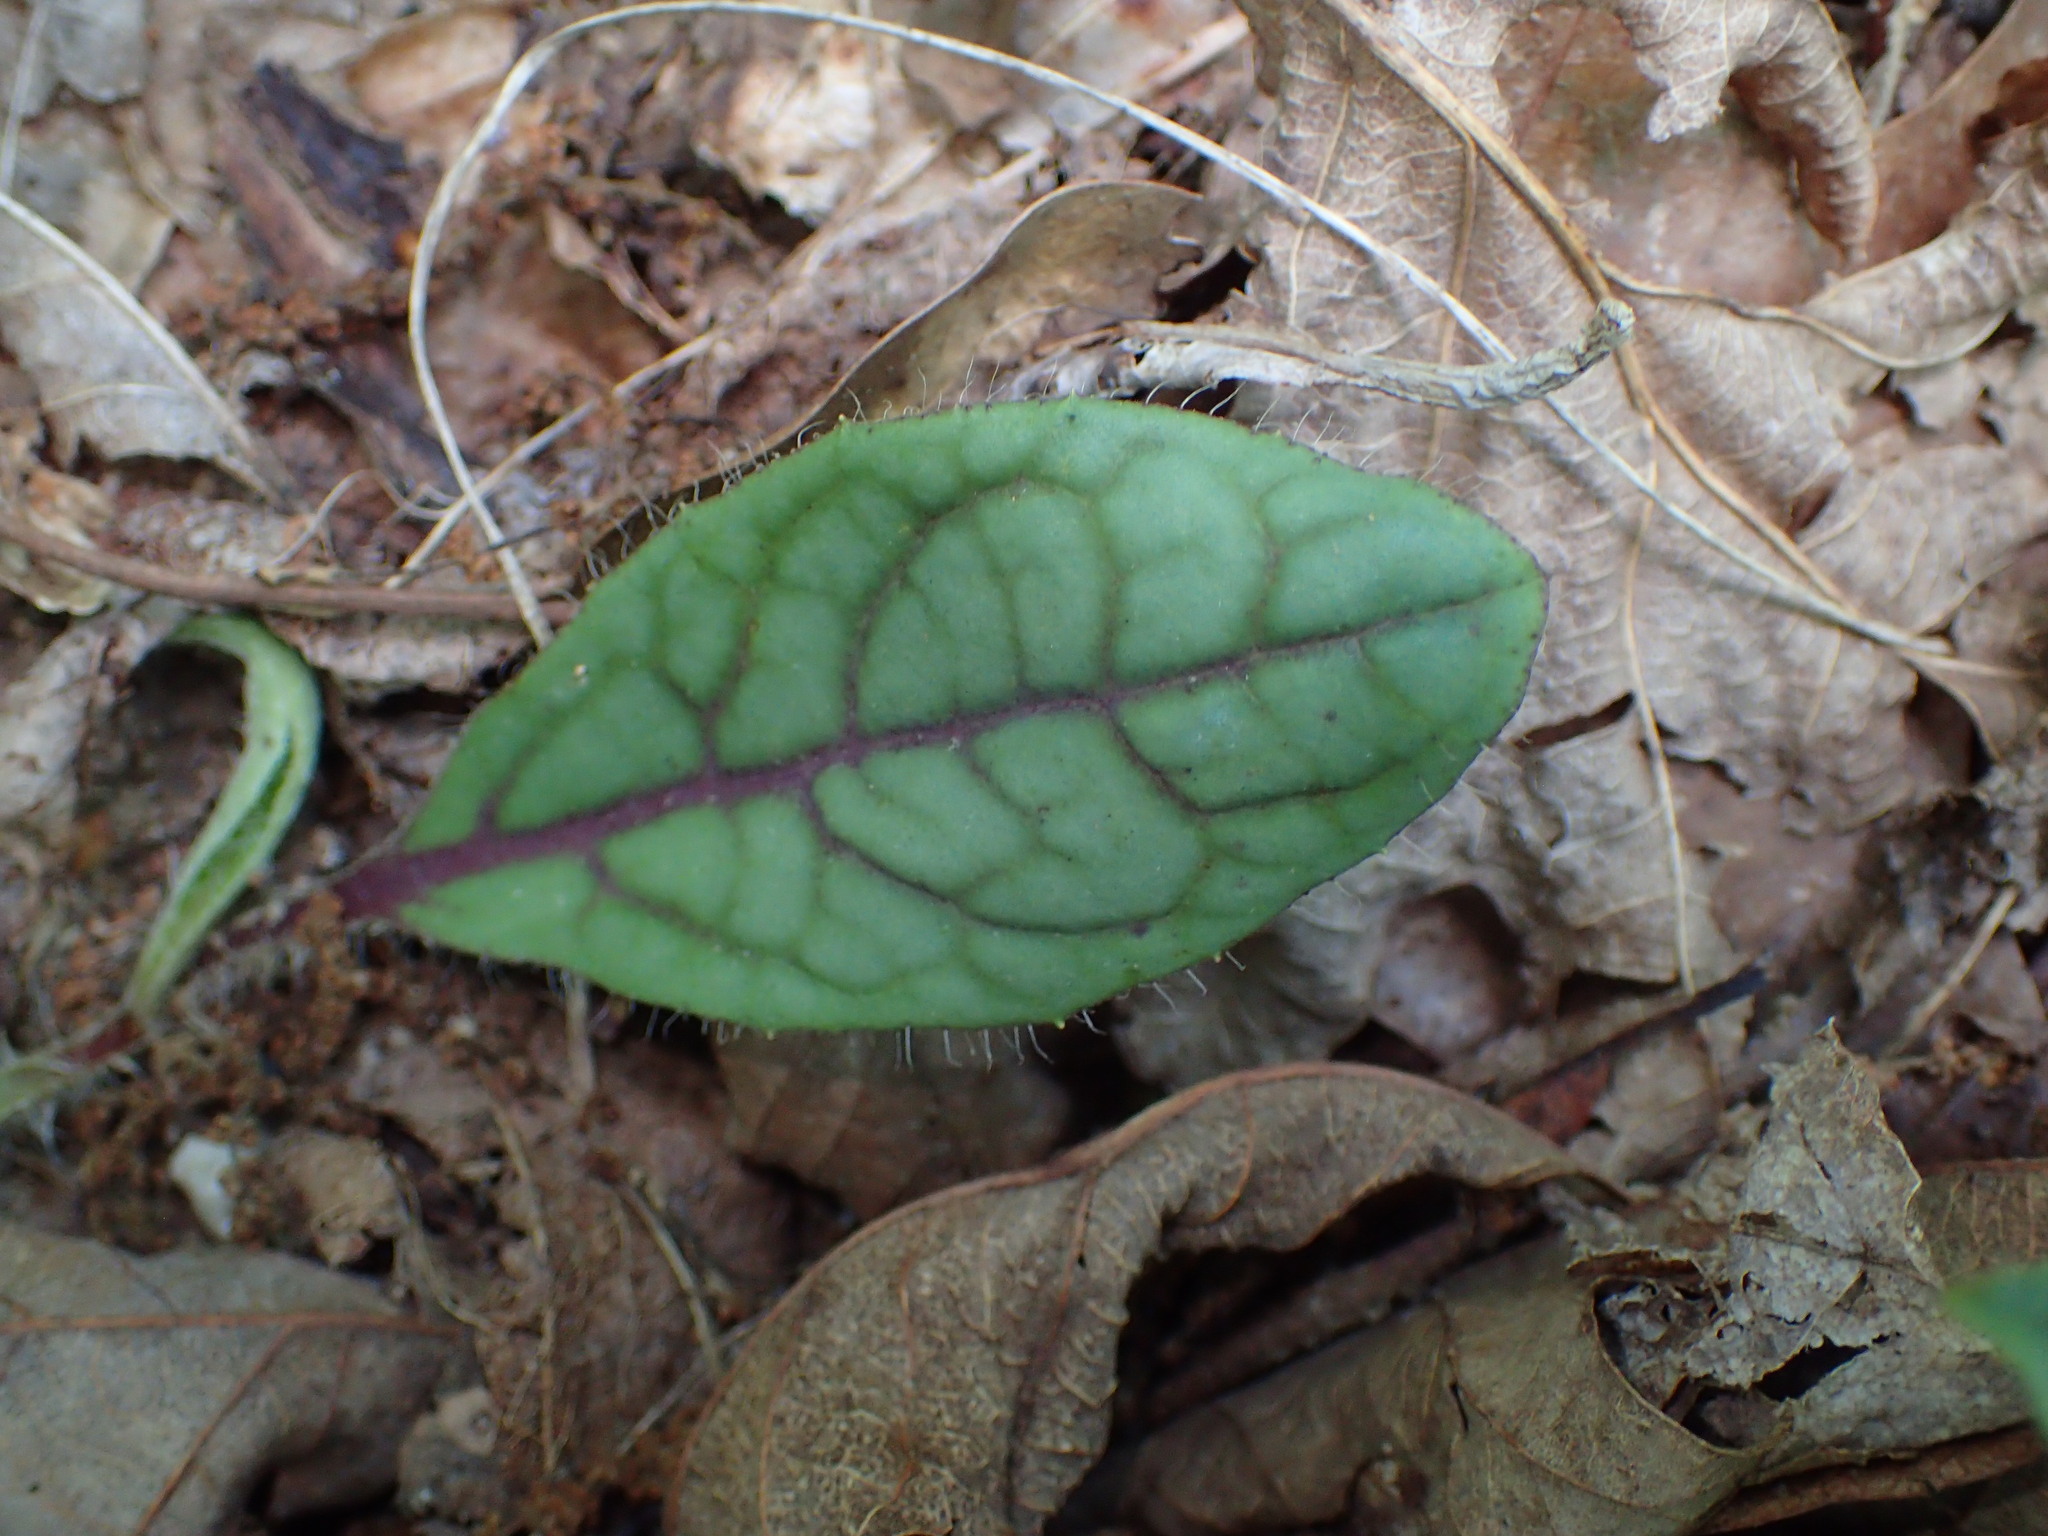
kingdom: Plantae
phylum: Tracheophyta
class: Magnoliopsida
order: Asterales
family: Asteraceae
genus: Hieracium
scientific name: Hieracium venosum
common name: Rattlesnake hawkweed
